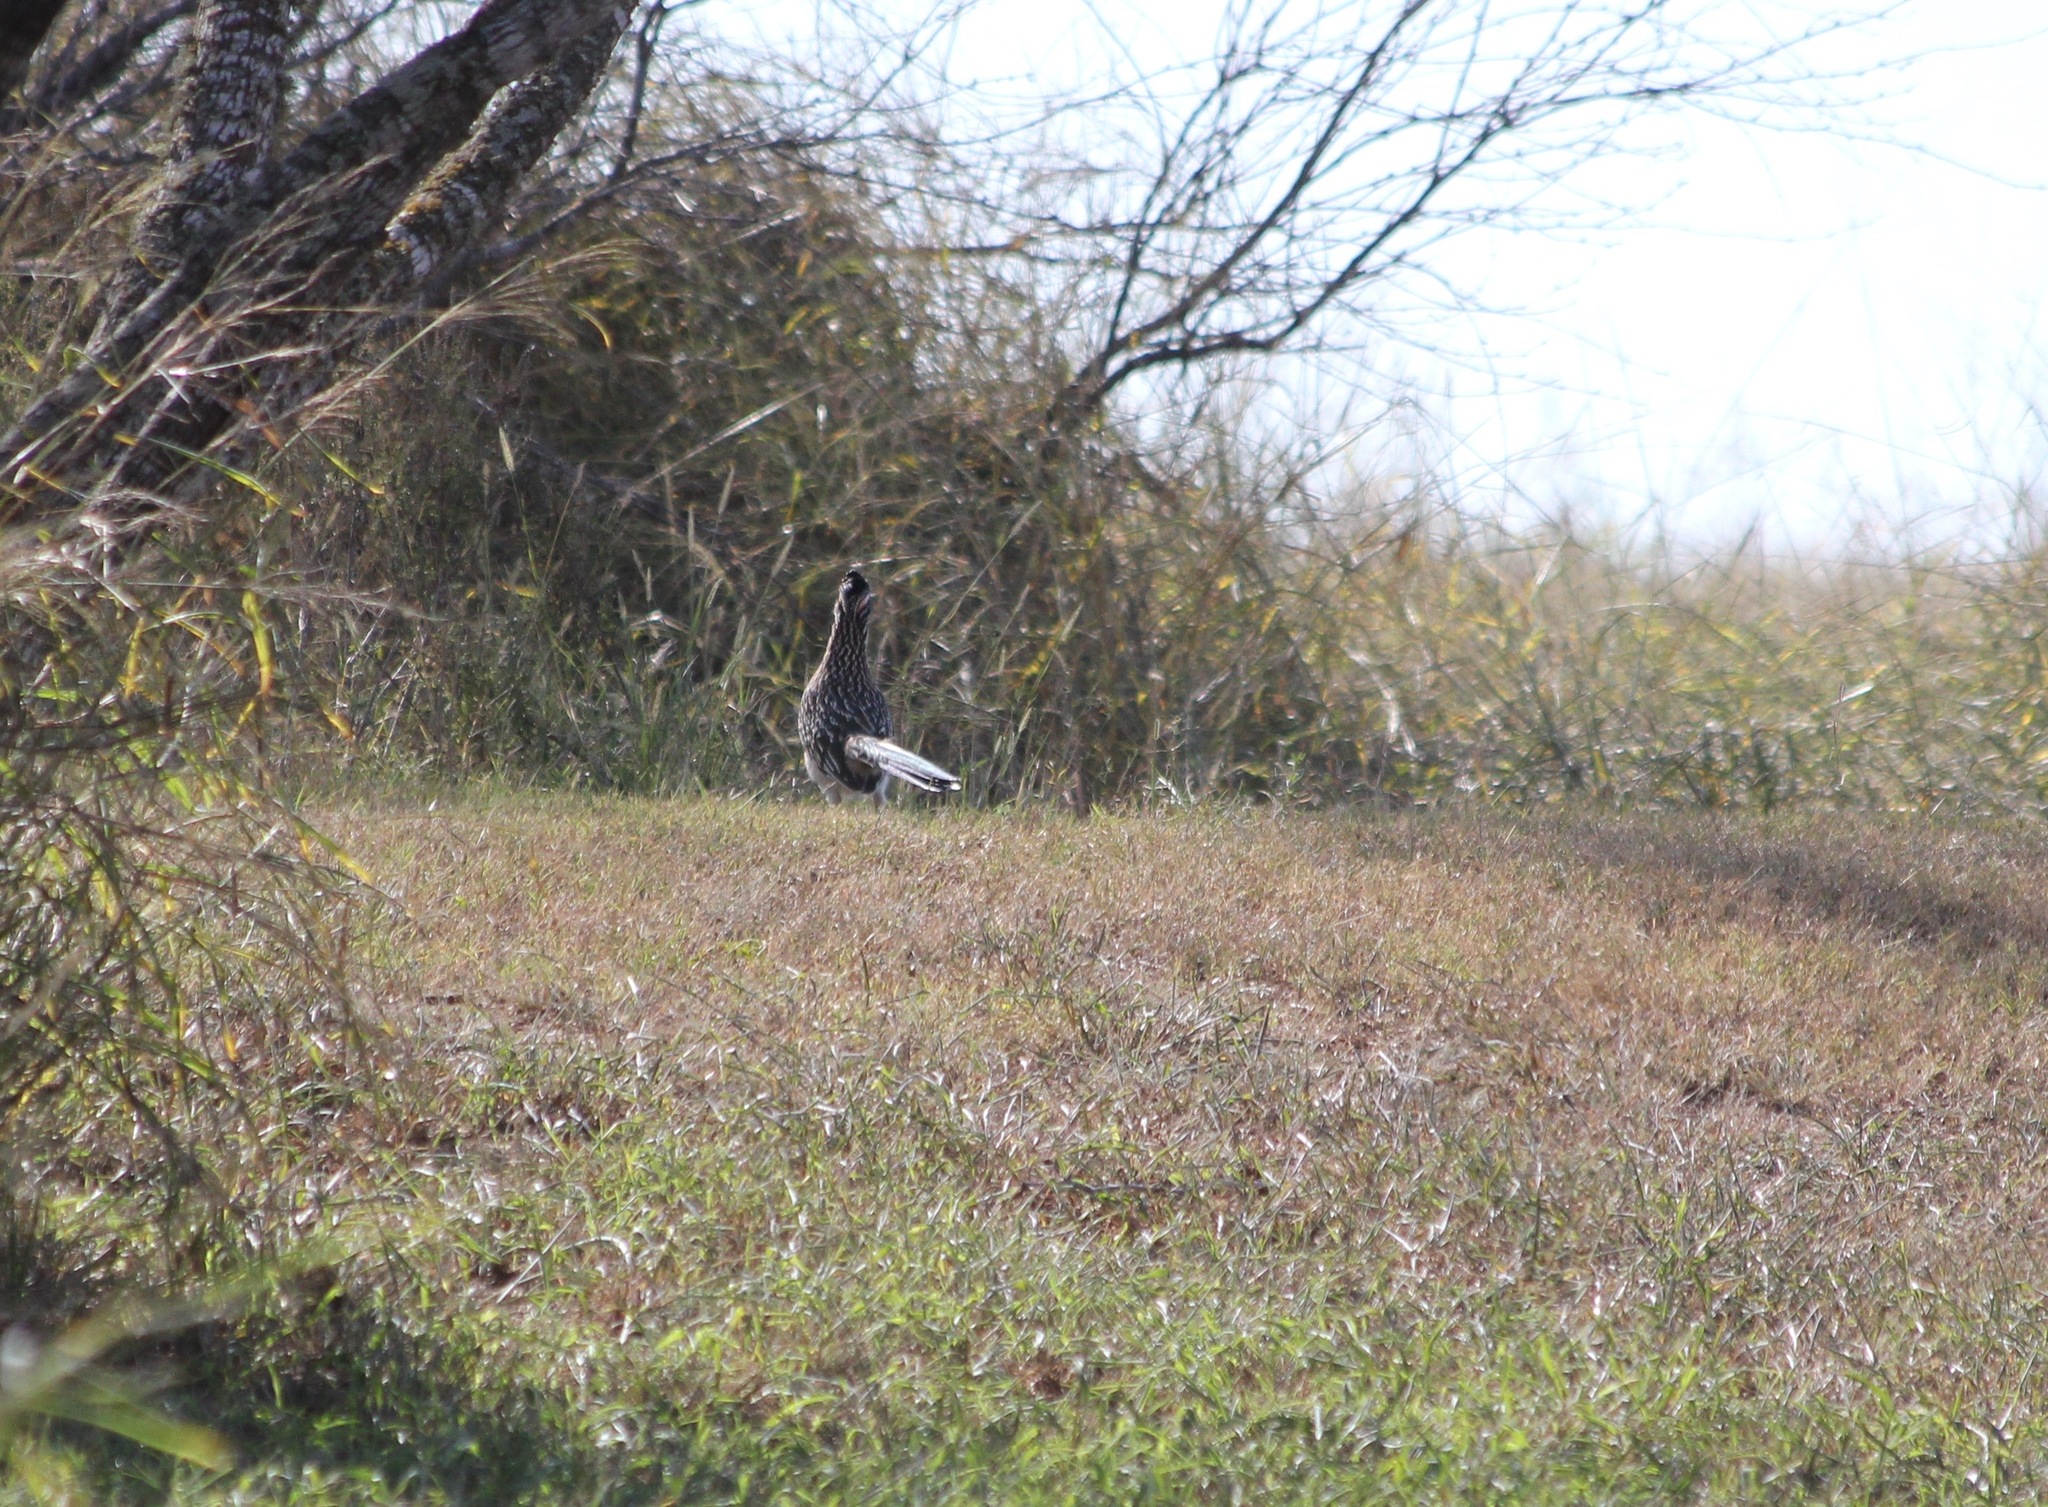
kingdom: Animalia
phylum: Chordata
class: Aves
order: Cuculiformes
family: Cuculidae
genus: Geococcyx
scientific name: Geococcyx californianus
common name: Greater roadrunner
